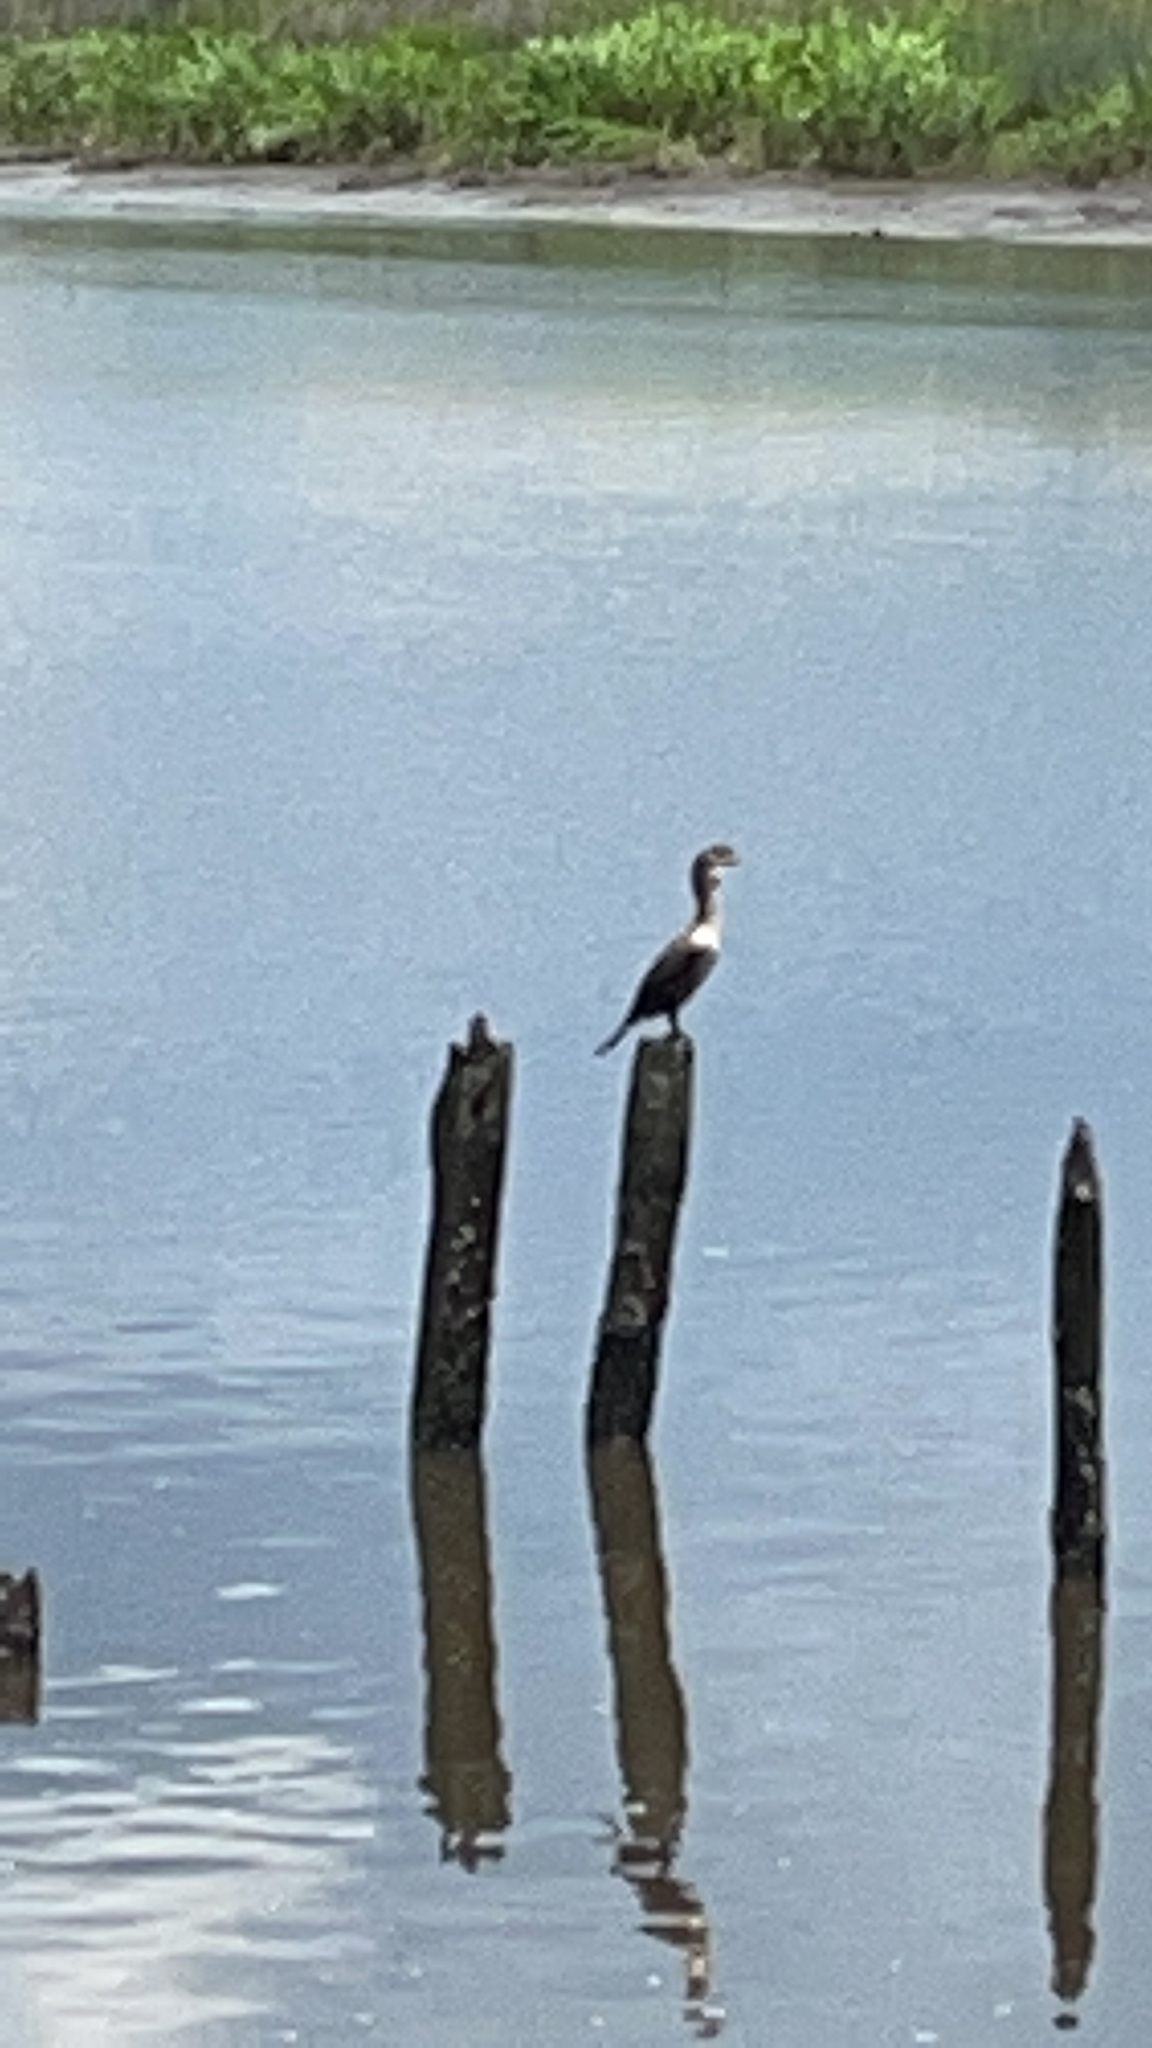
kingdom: Animalia
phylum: Chordata
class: Aves
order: Suliformes
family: Phalacrocoracidae
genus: Phalacrocorax
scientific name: Phalacrocorax auritus
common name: Double-crested cormorant
